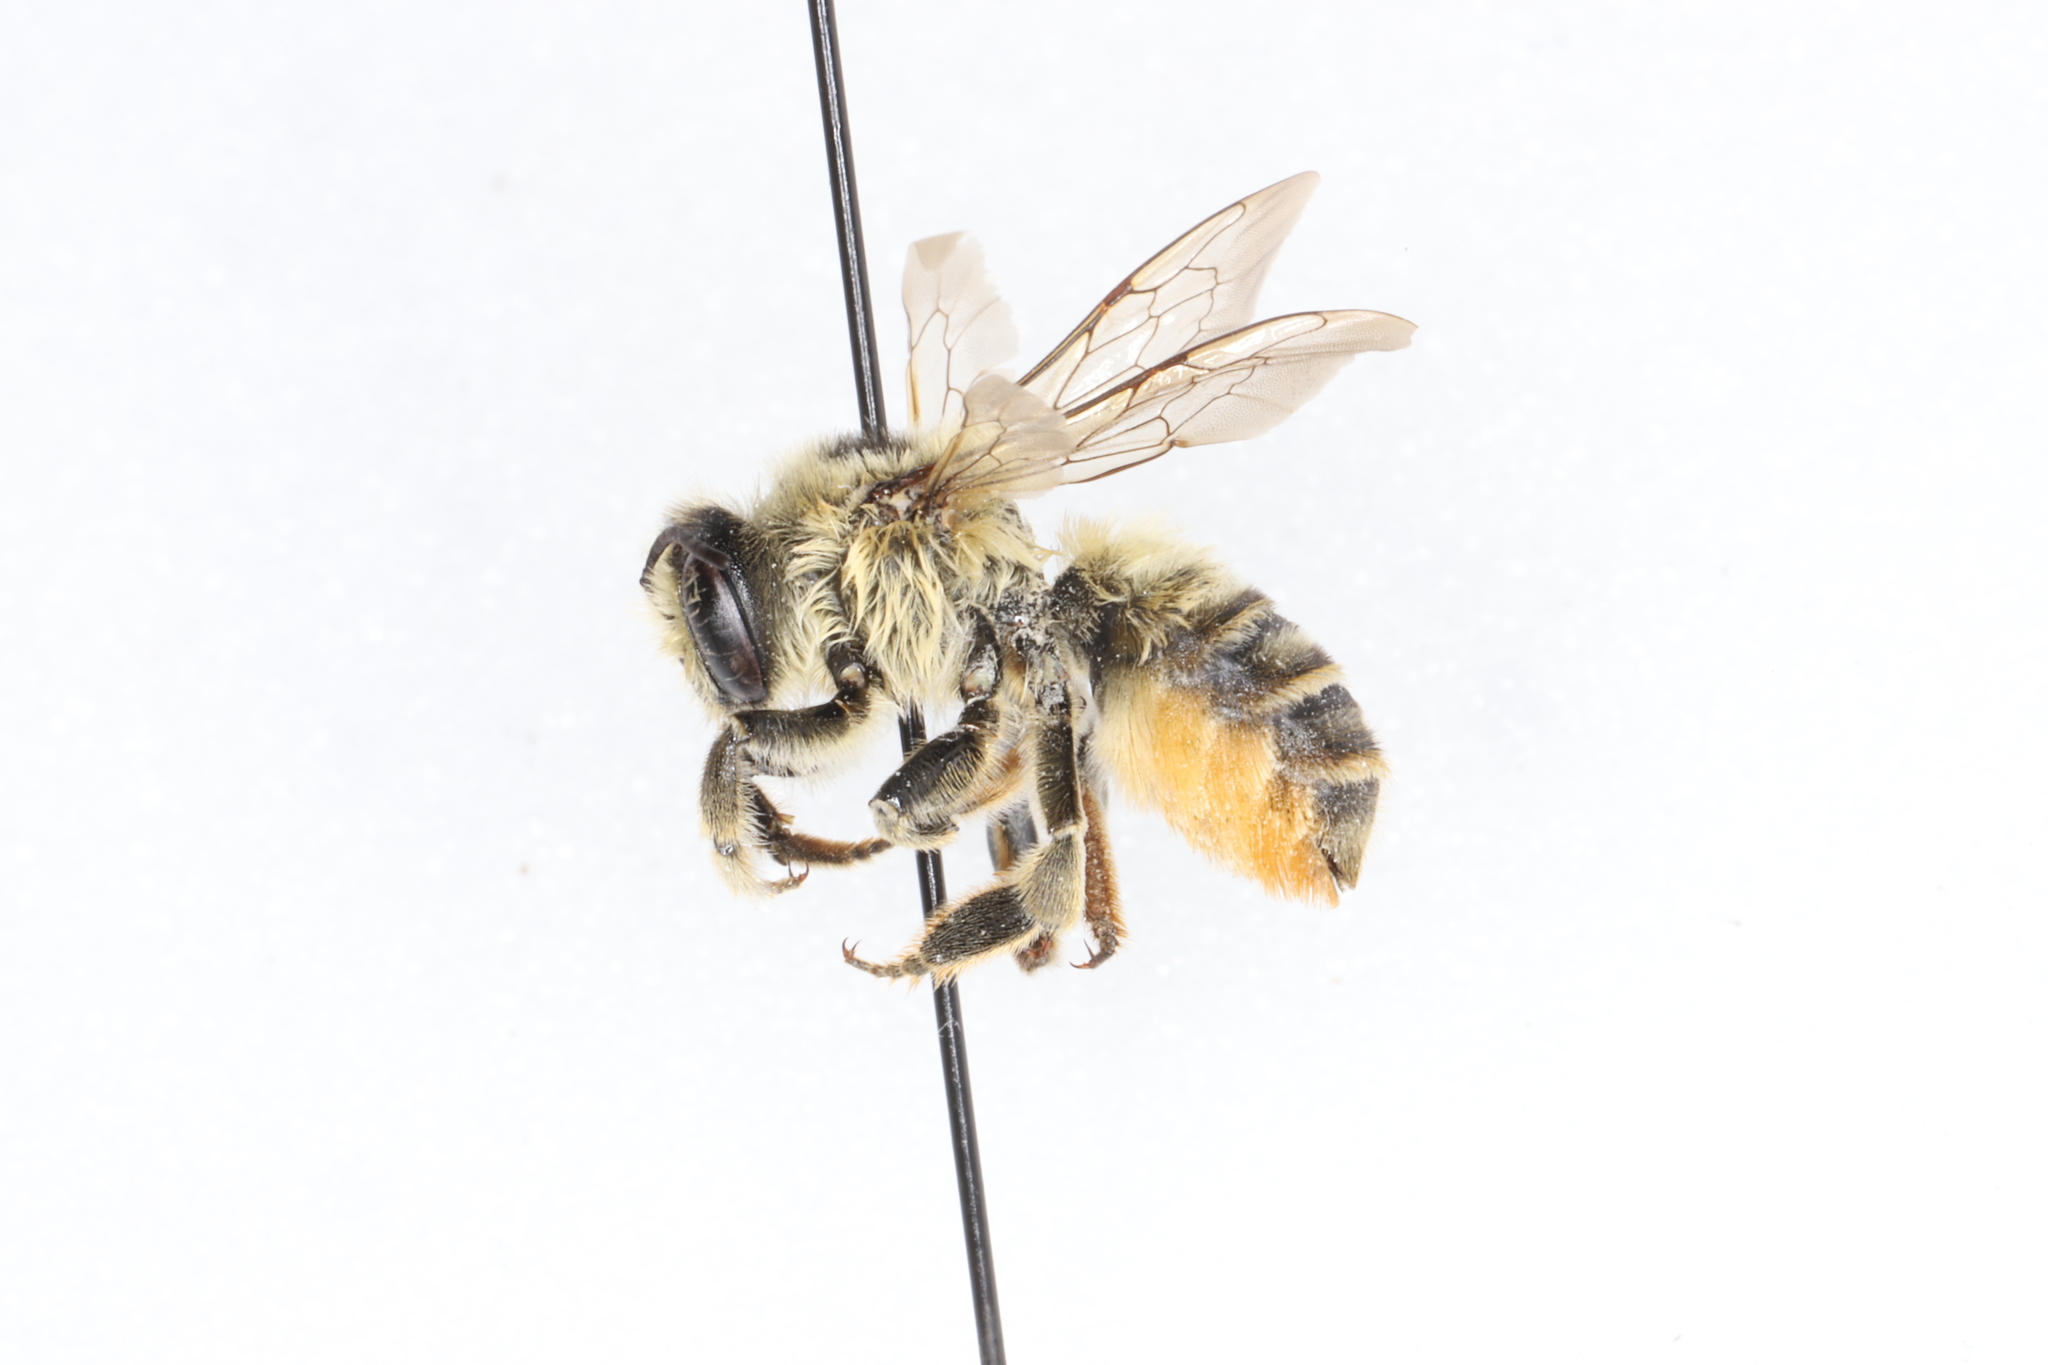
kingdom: Animalia
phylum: Arthropoda
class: Insecta
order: Hymenoptera
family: Megachilidae
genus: Megachile
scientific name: Megachile latimanus
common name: Leafcutting bee
